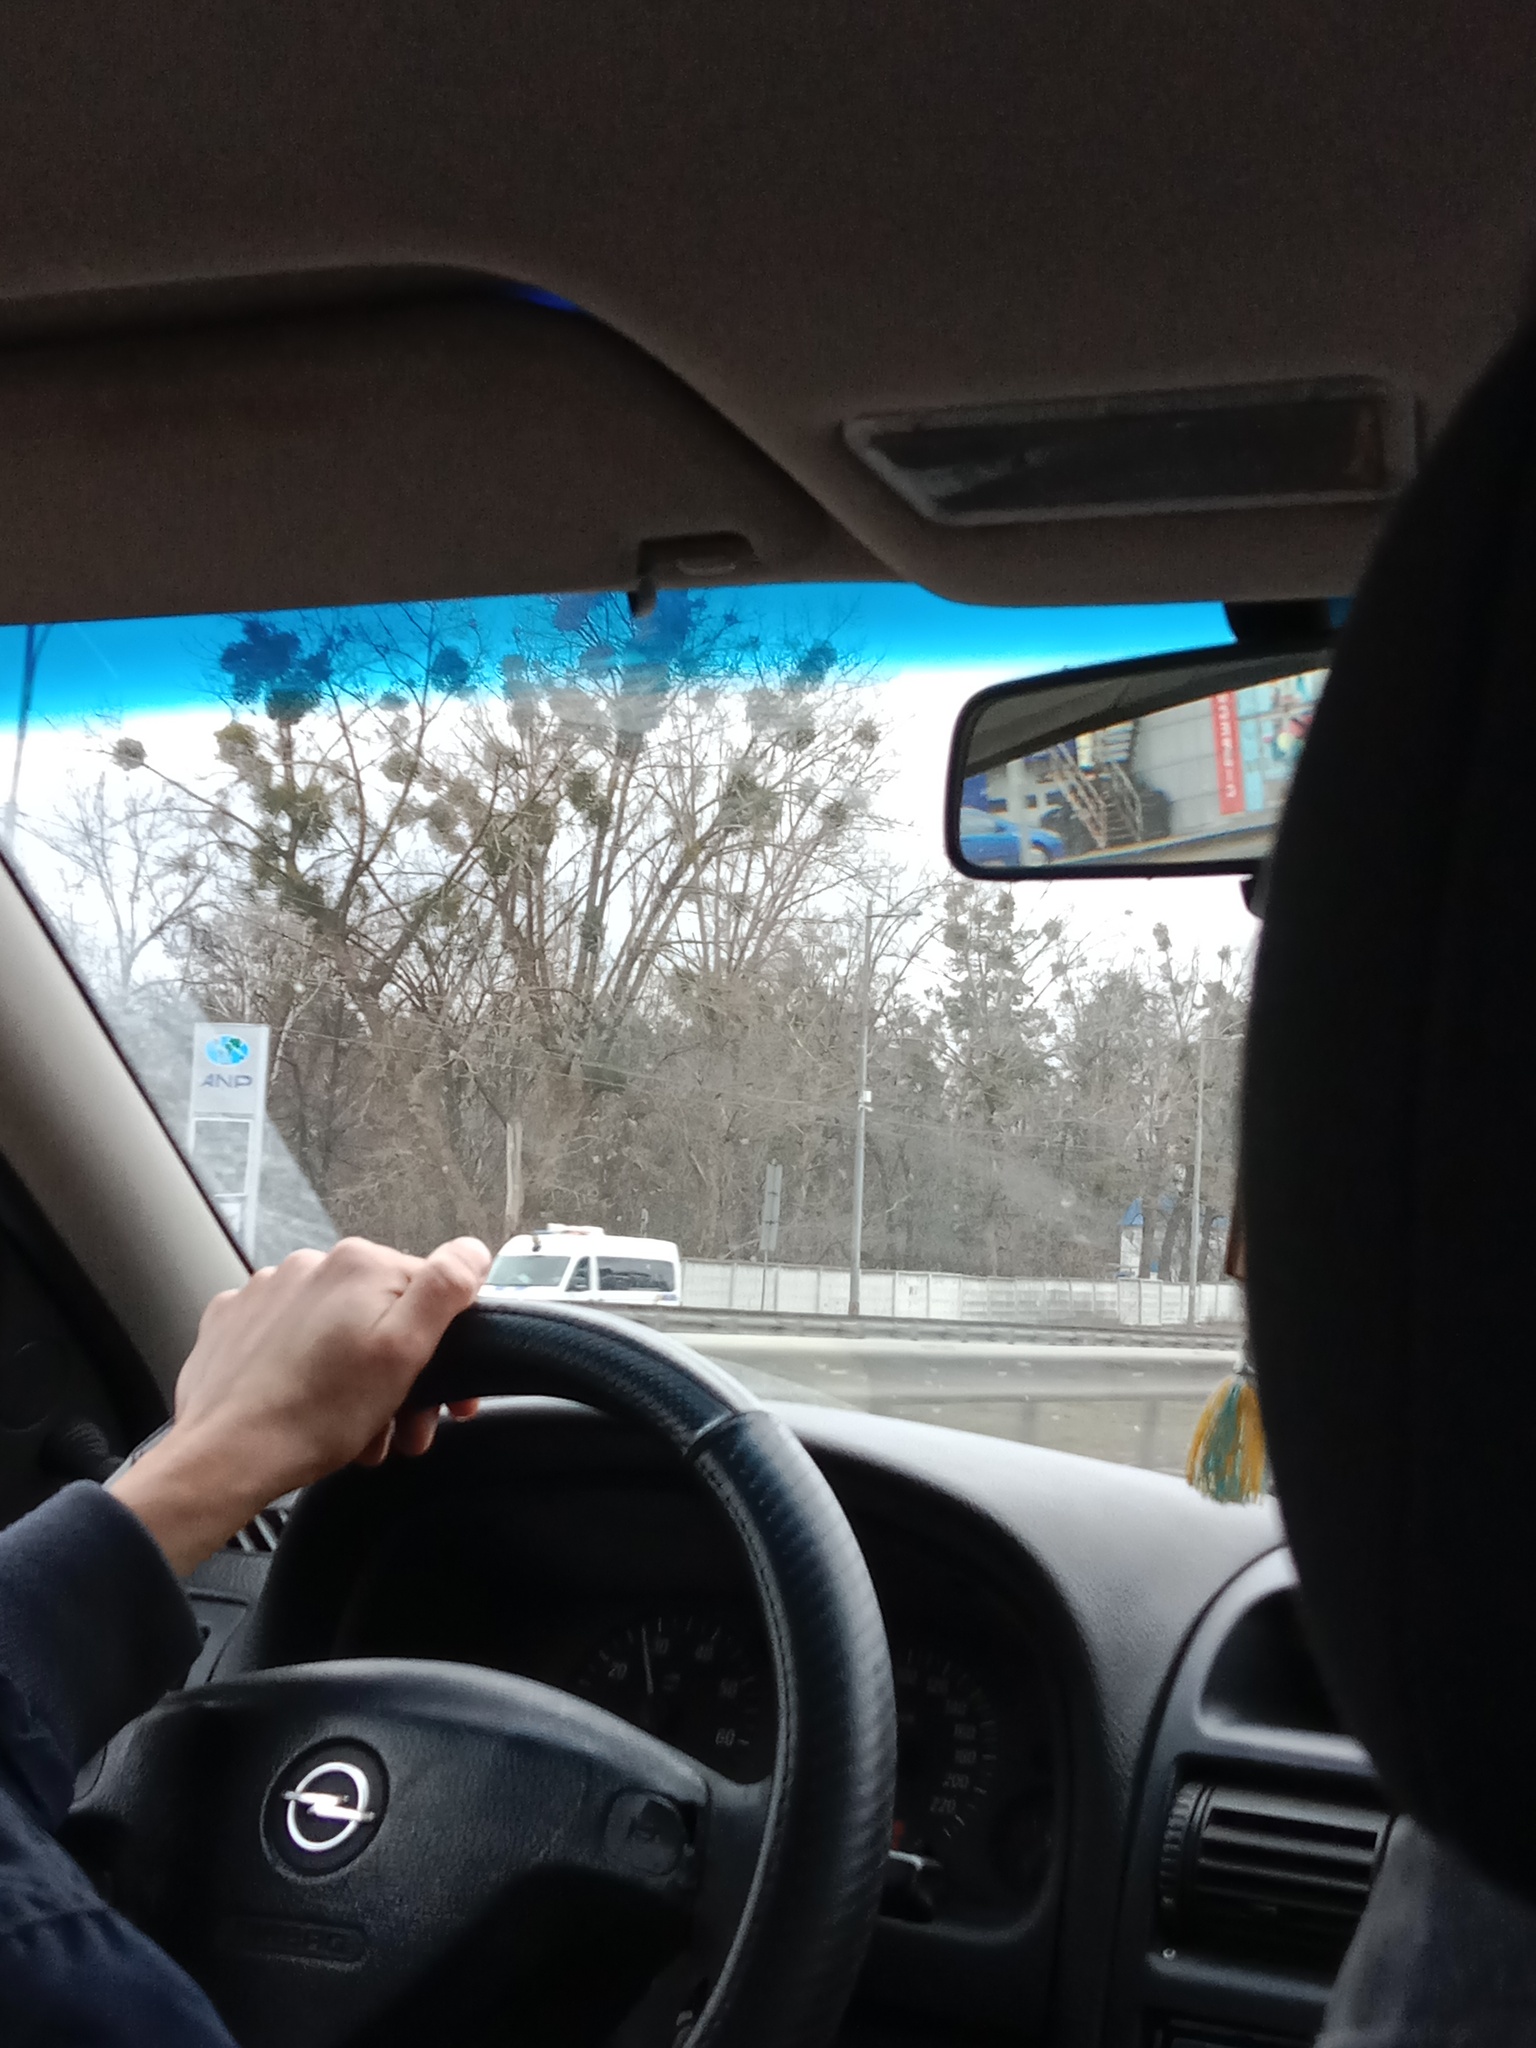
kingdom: Plantae
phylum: Tracheophyta
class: Magnoliopsida
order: Santalales
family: Viscaceae
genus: Viscum
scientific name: Viscum album
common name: Mistletoe
